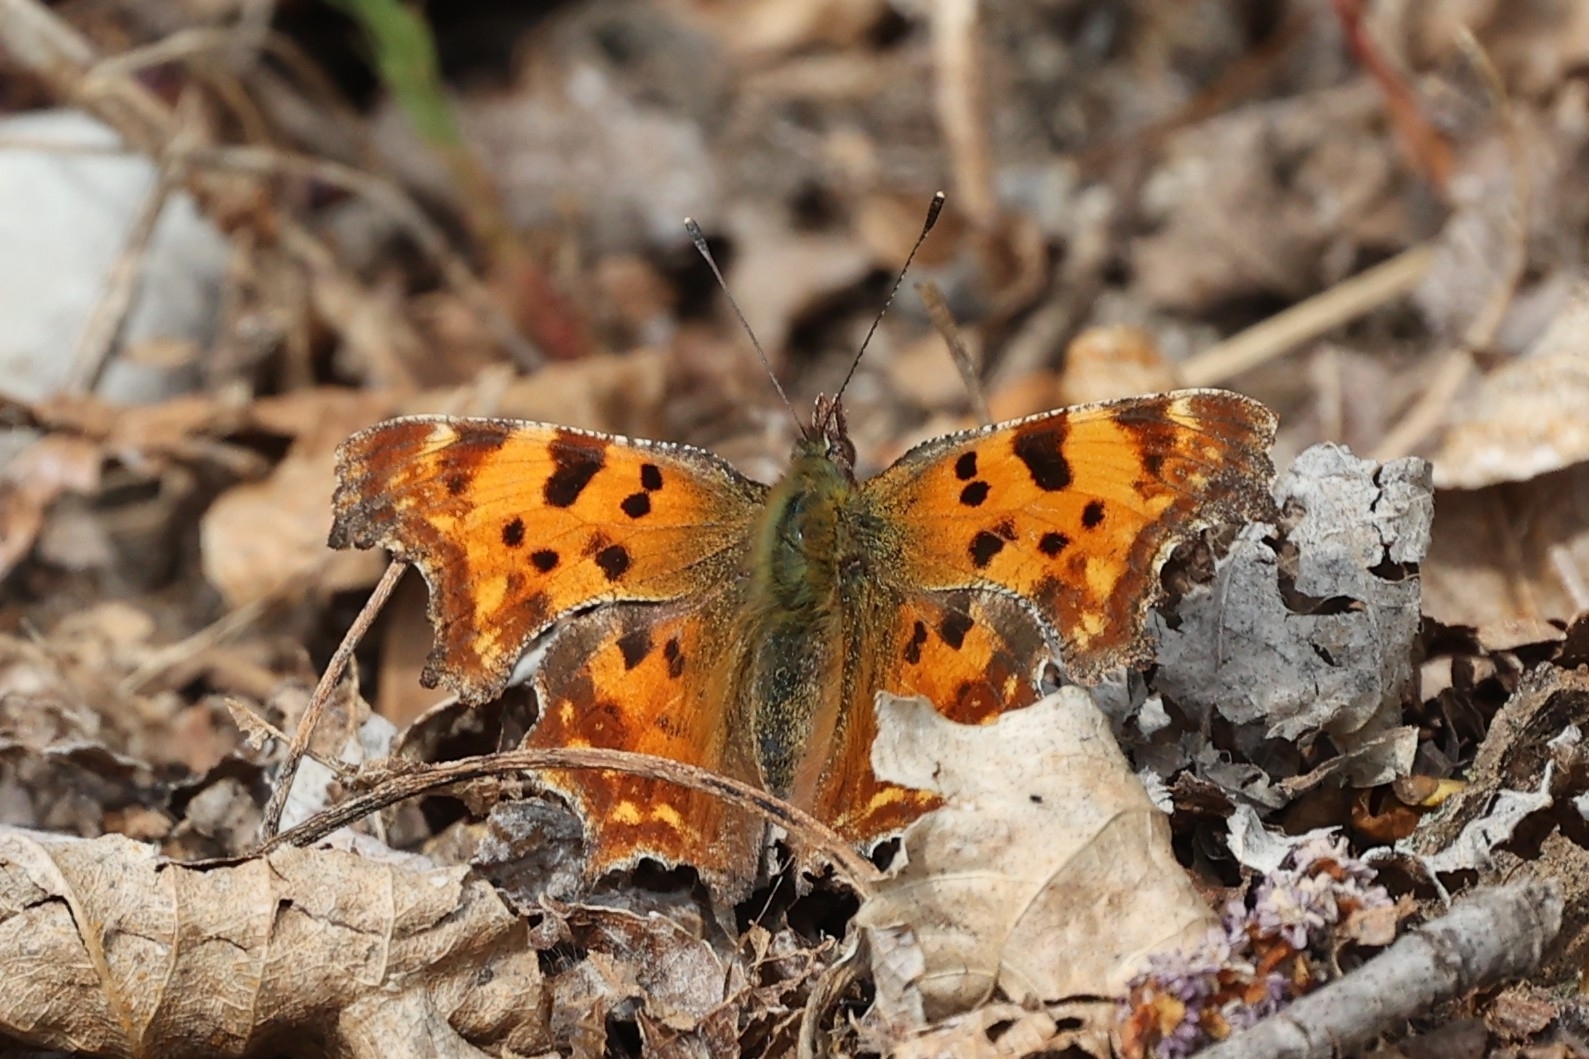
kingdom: Animalia
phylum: Arthropoda
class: Insecta
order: Lepidoptera
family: Nymphalidae
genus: Polygonia
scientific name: Polygonia c-album
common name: Comma
